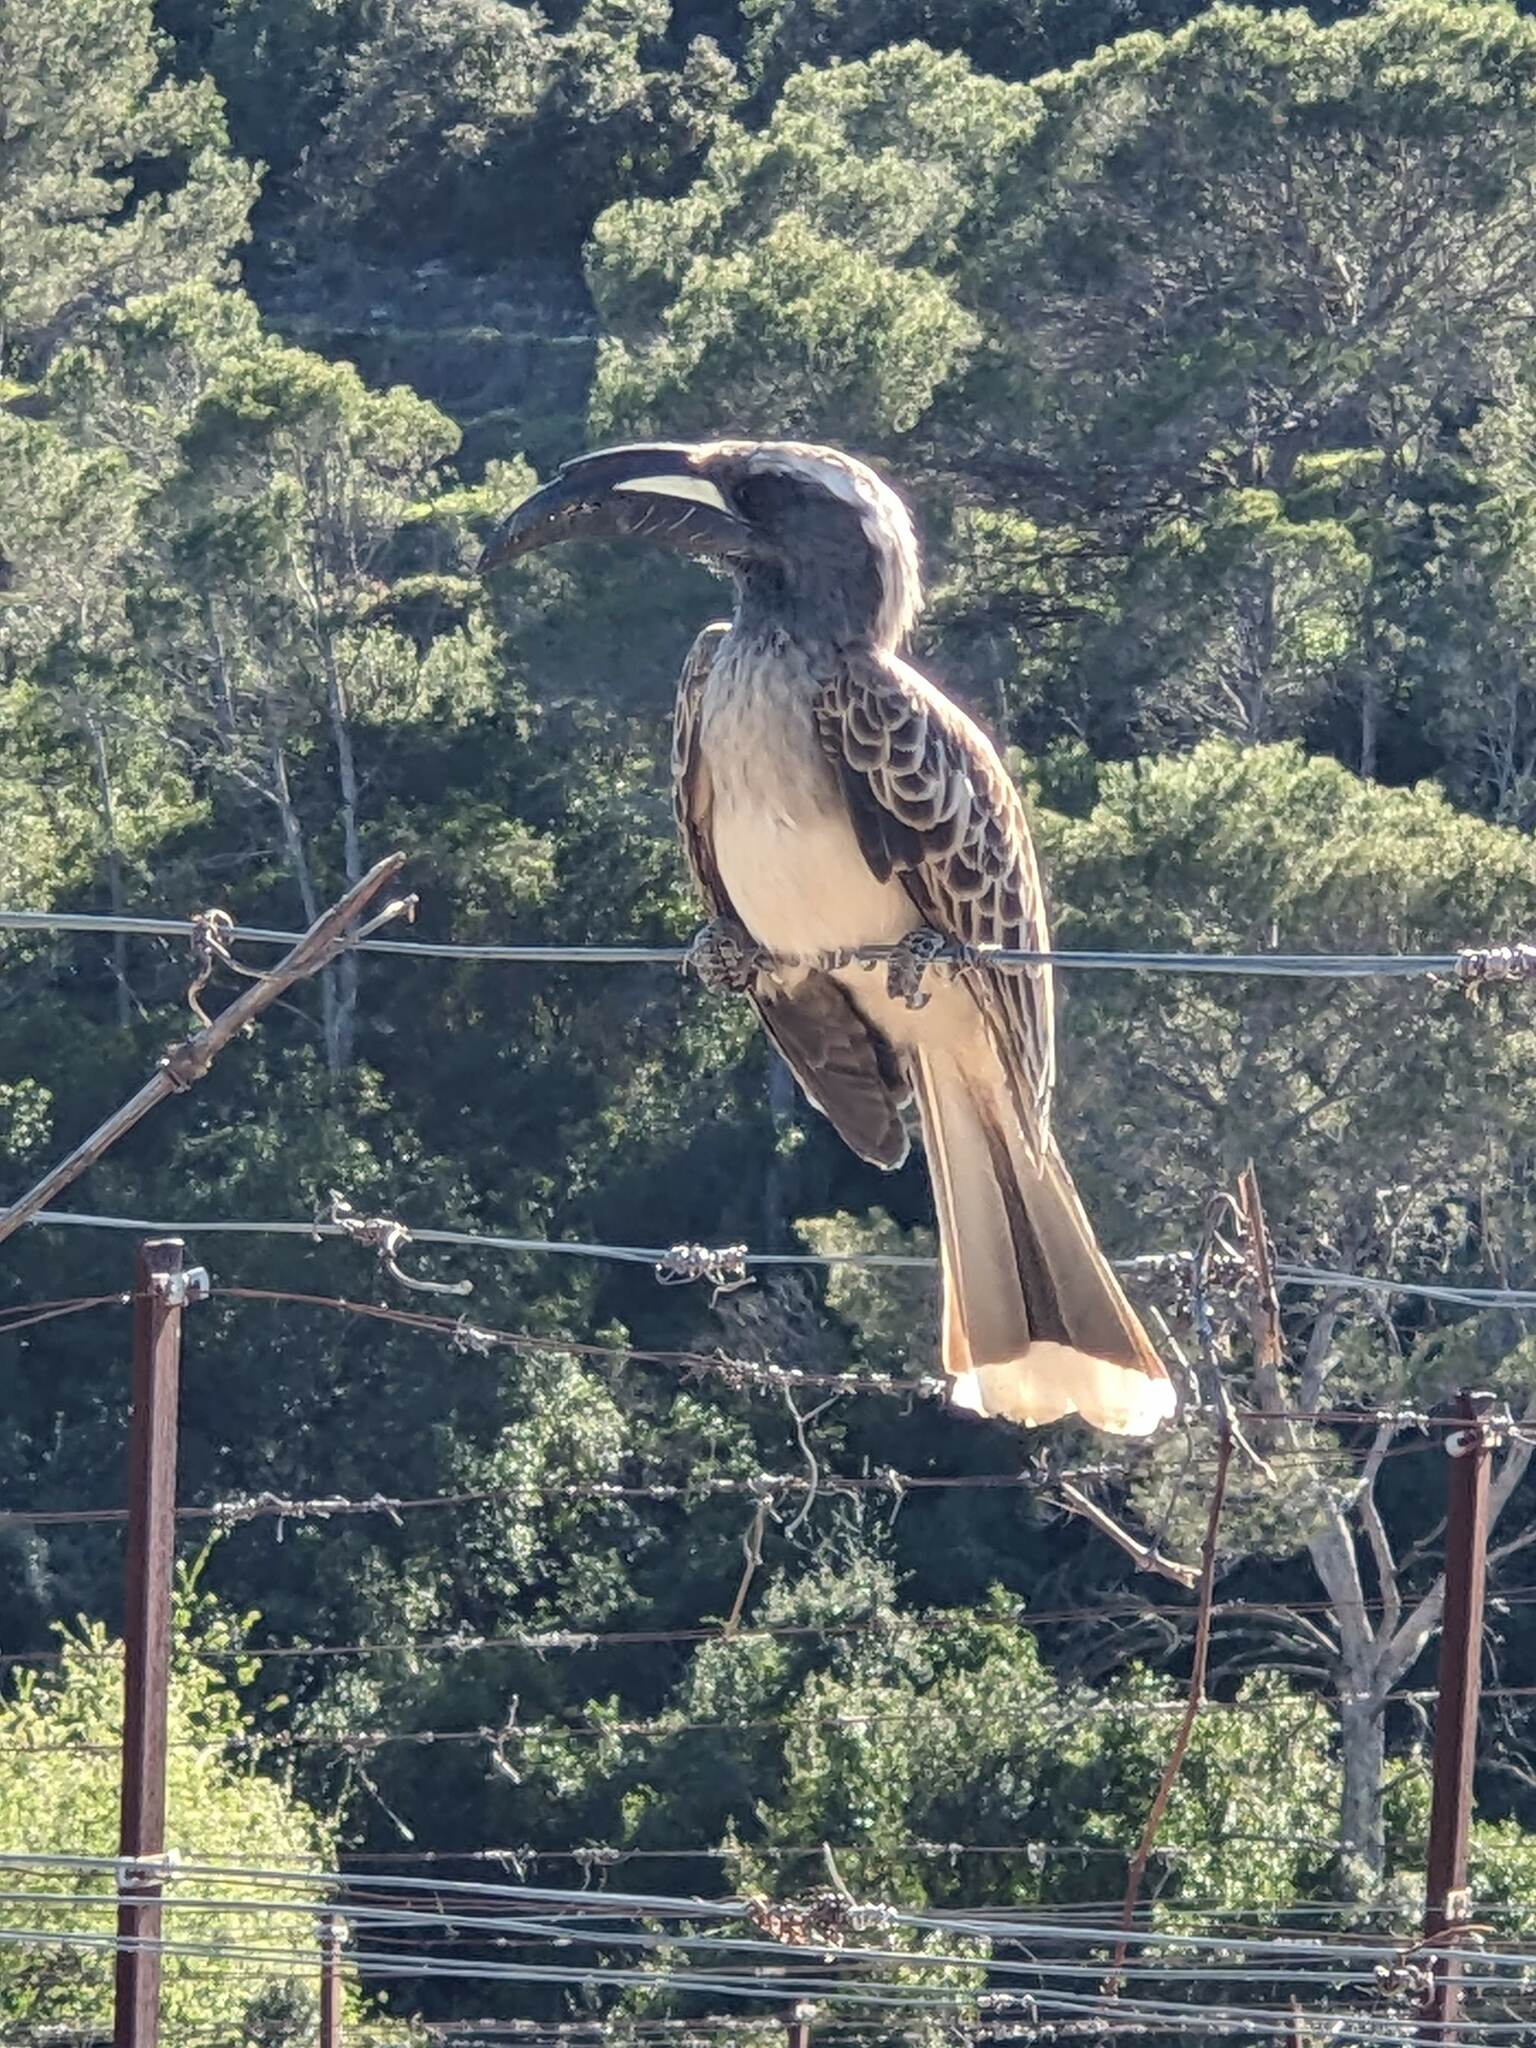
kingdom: Animalia
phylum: Chordata
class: Aves
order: Bucerotiformes
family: Bucerotidae
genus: Lophoceros
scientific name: Lophoceros nasutus
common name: African grey hornbill
